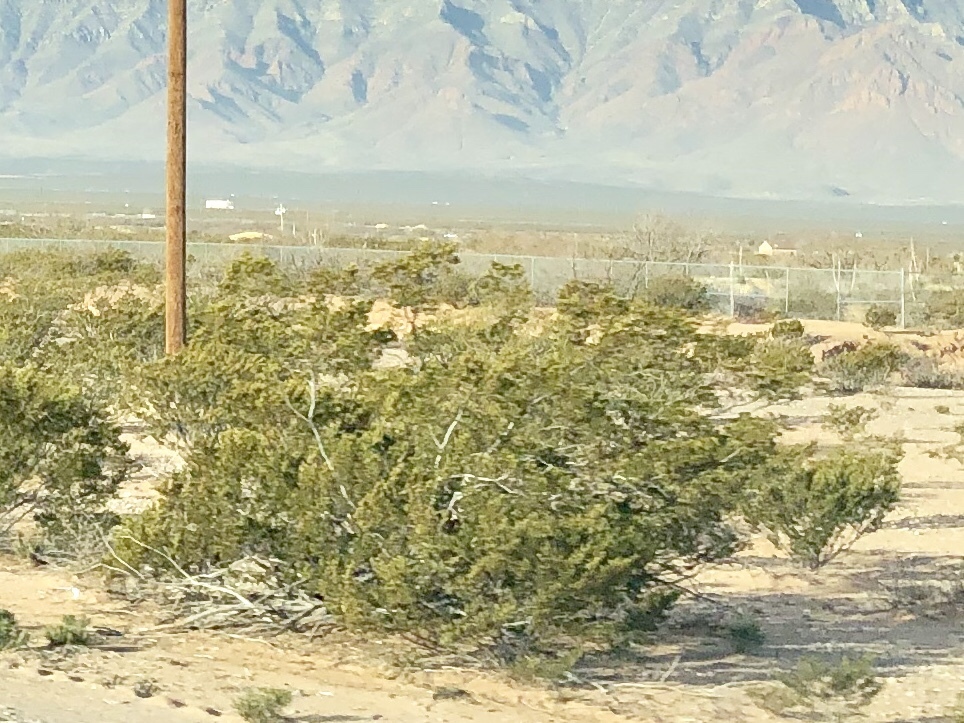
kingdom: Plantae
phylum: Tracheophyta
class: Magnoliopsida
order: Zygophyllales
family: Zygophyllaceae
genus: Larrea
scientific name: Larrea tridentata
